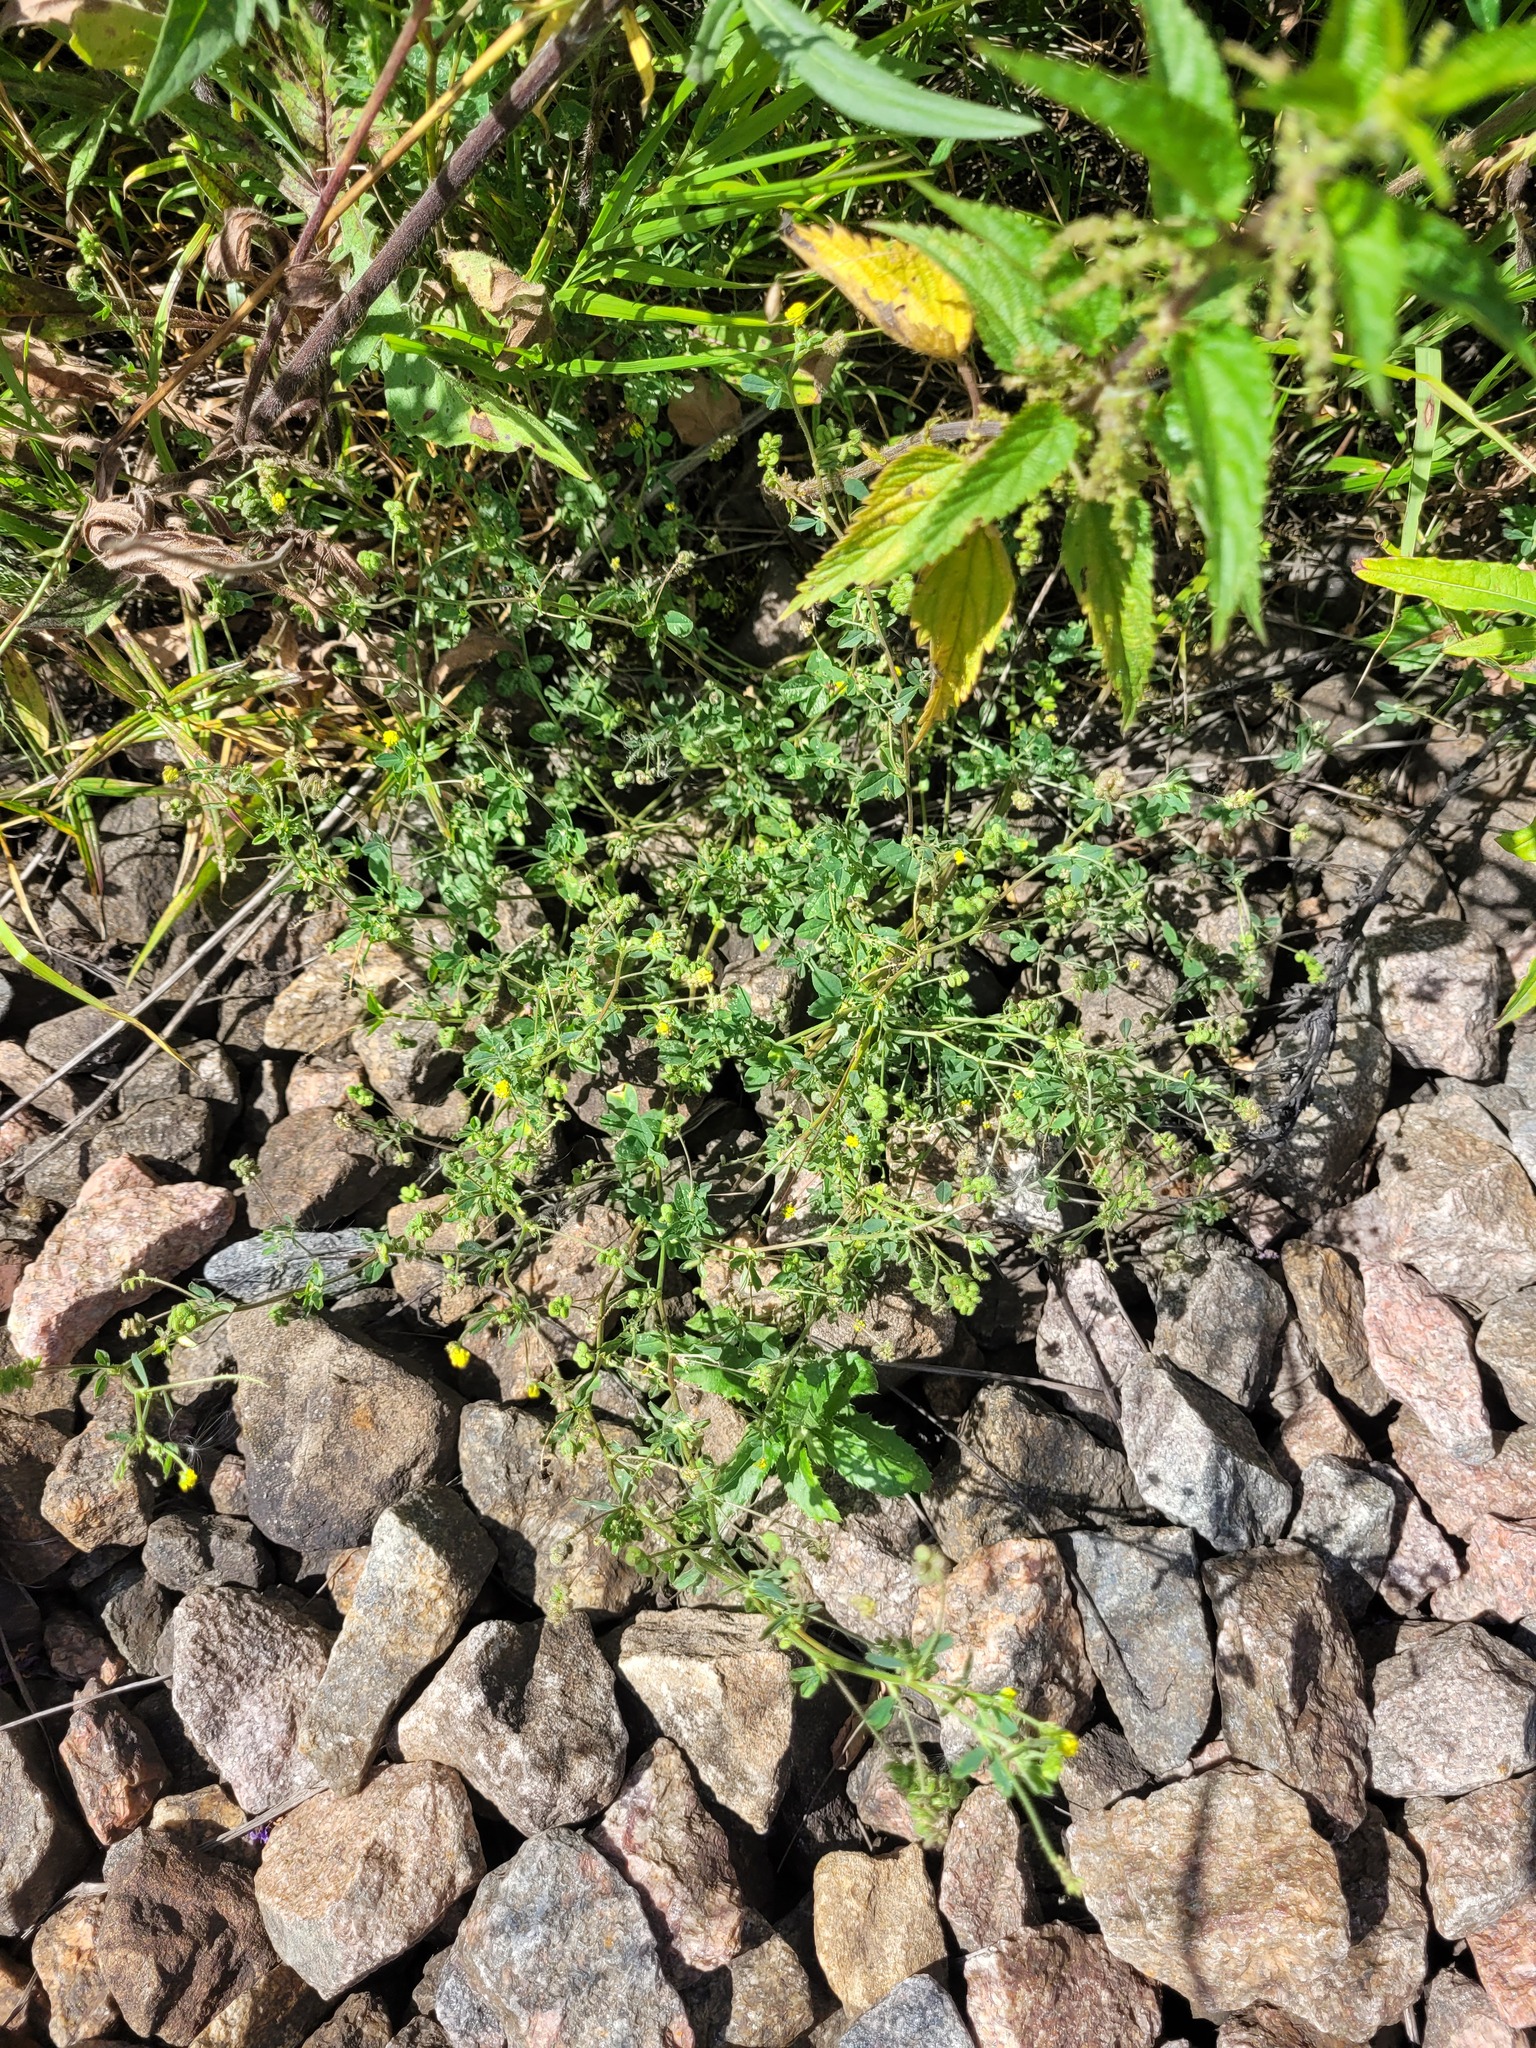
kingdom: Plantae
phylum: Tracheophyta
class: Magnoliopsida
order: Fabales
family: Fabaceae
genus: Medicago
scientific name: Medicago lupulina
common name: Black medick
